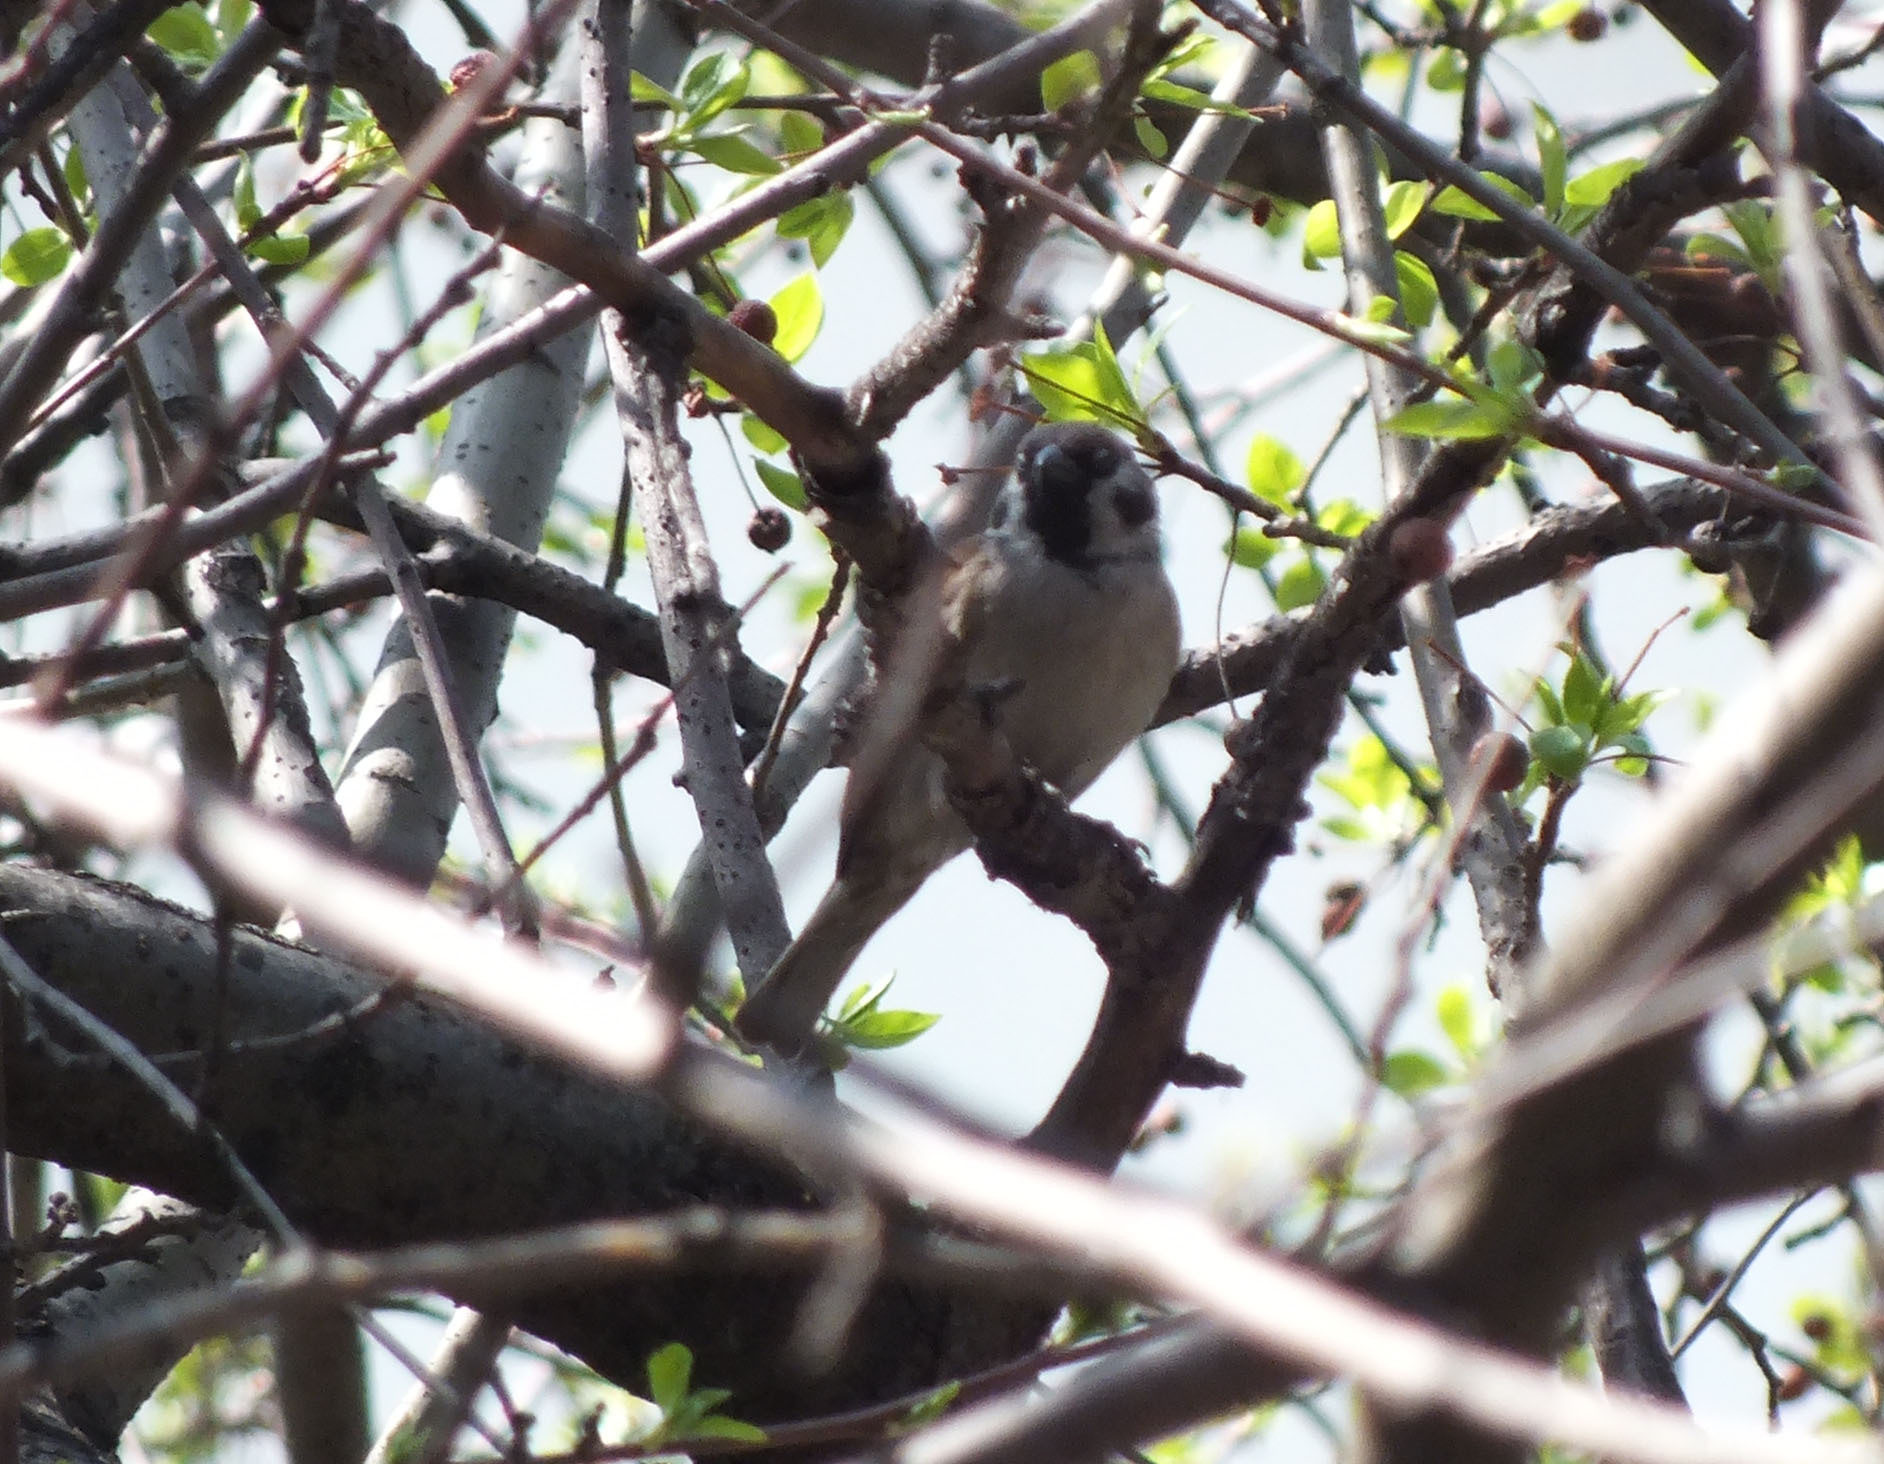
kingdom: Animalia
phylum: Chordata
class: Aves
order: Passeriformes
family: Passeridae
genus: Passer
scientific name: Passer montanus
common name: Eurasian tree sparrow
